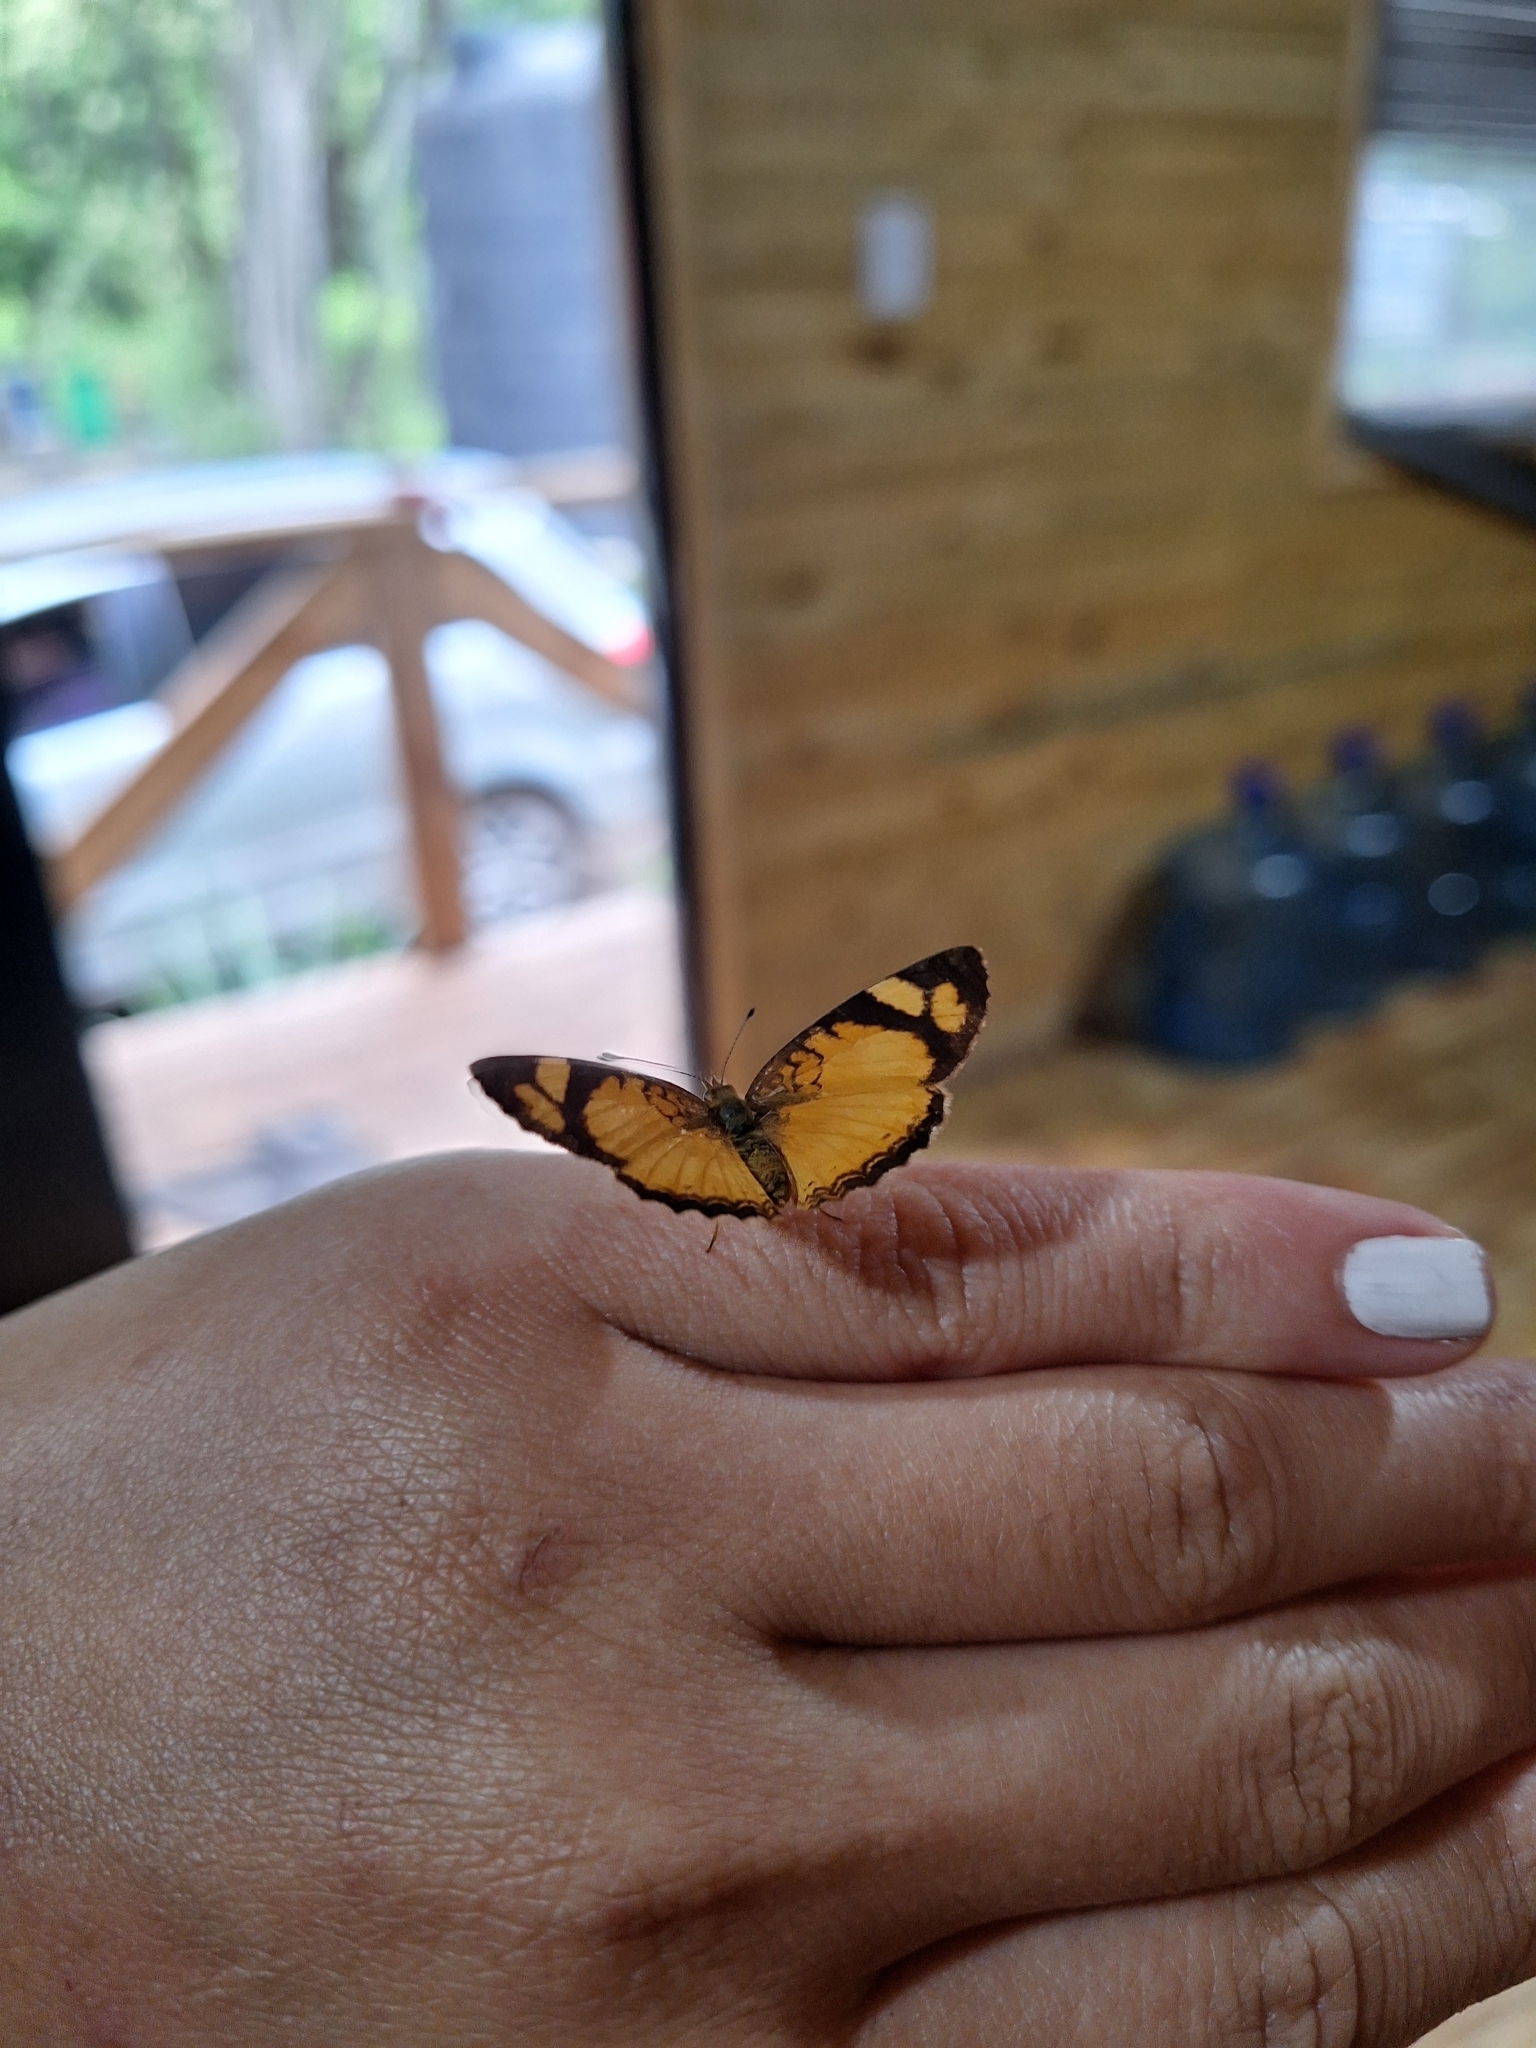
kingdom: Animalia
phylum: Arthropoda
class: Insecta
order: Lepidoptera
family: Nymphalidae
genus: Tegosa
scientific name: Tegosa claudina
